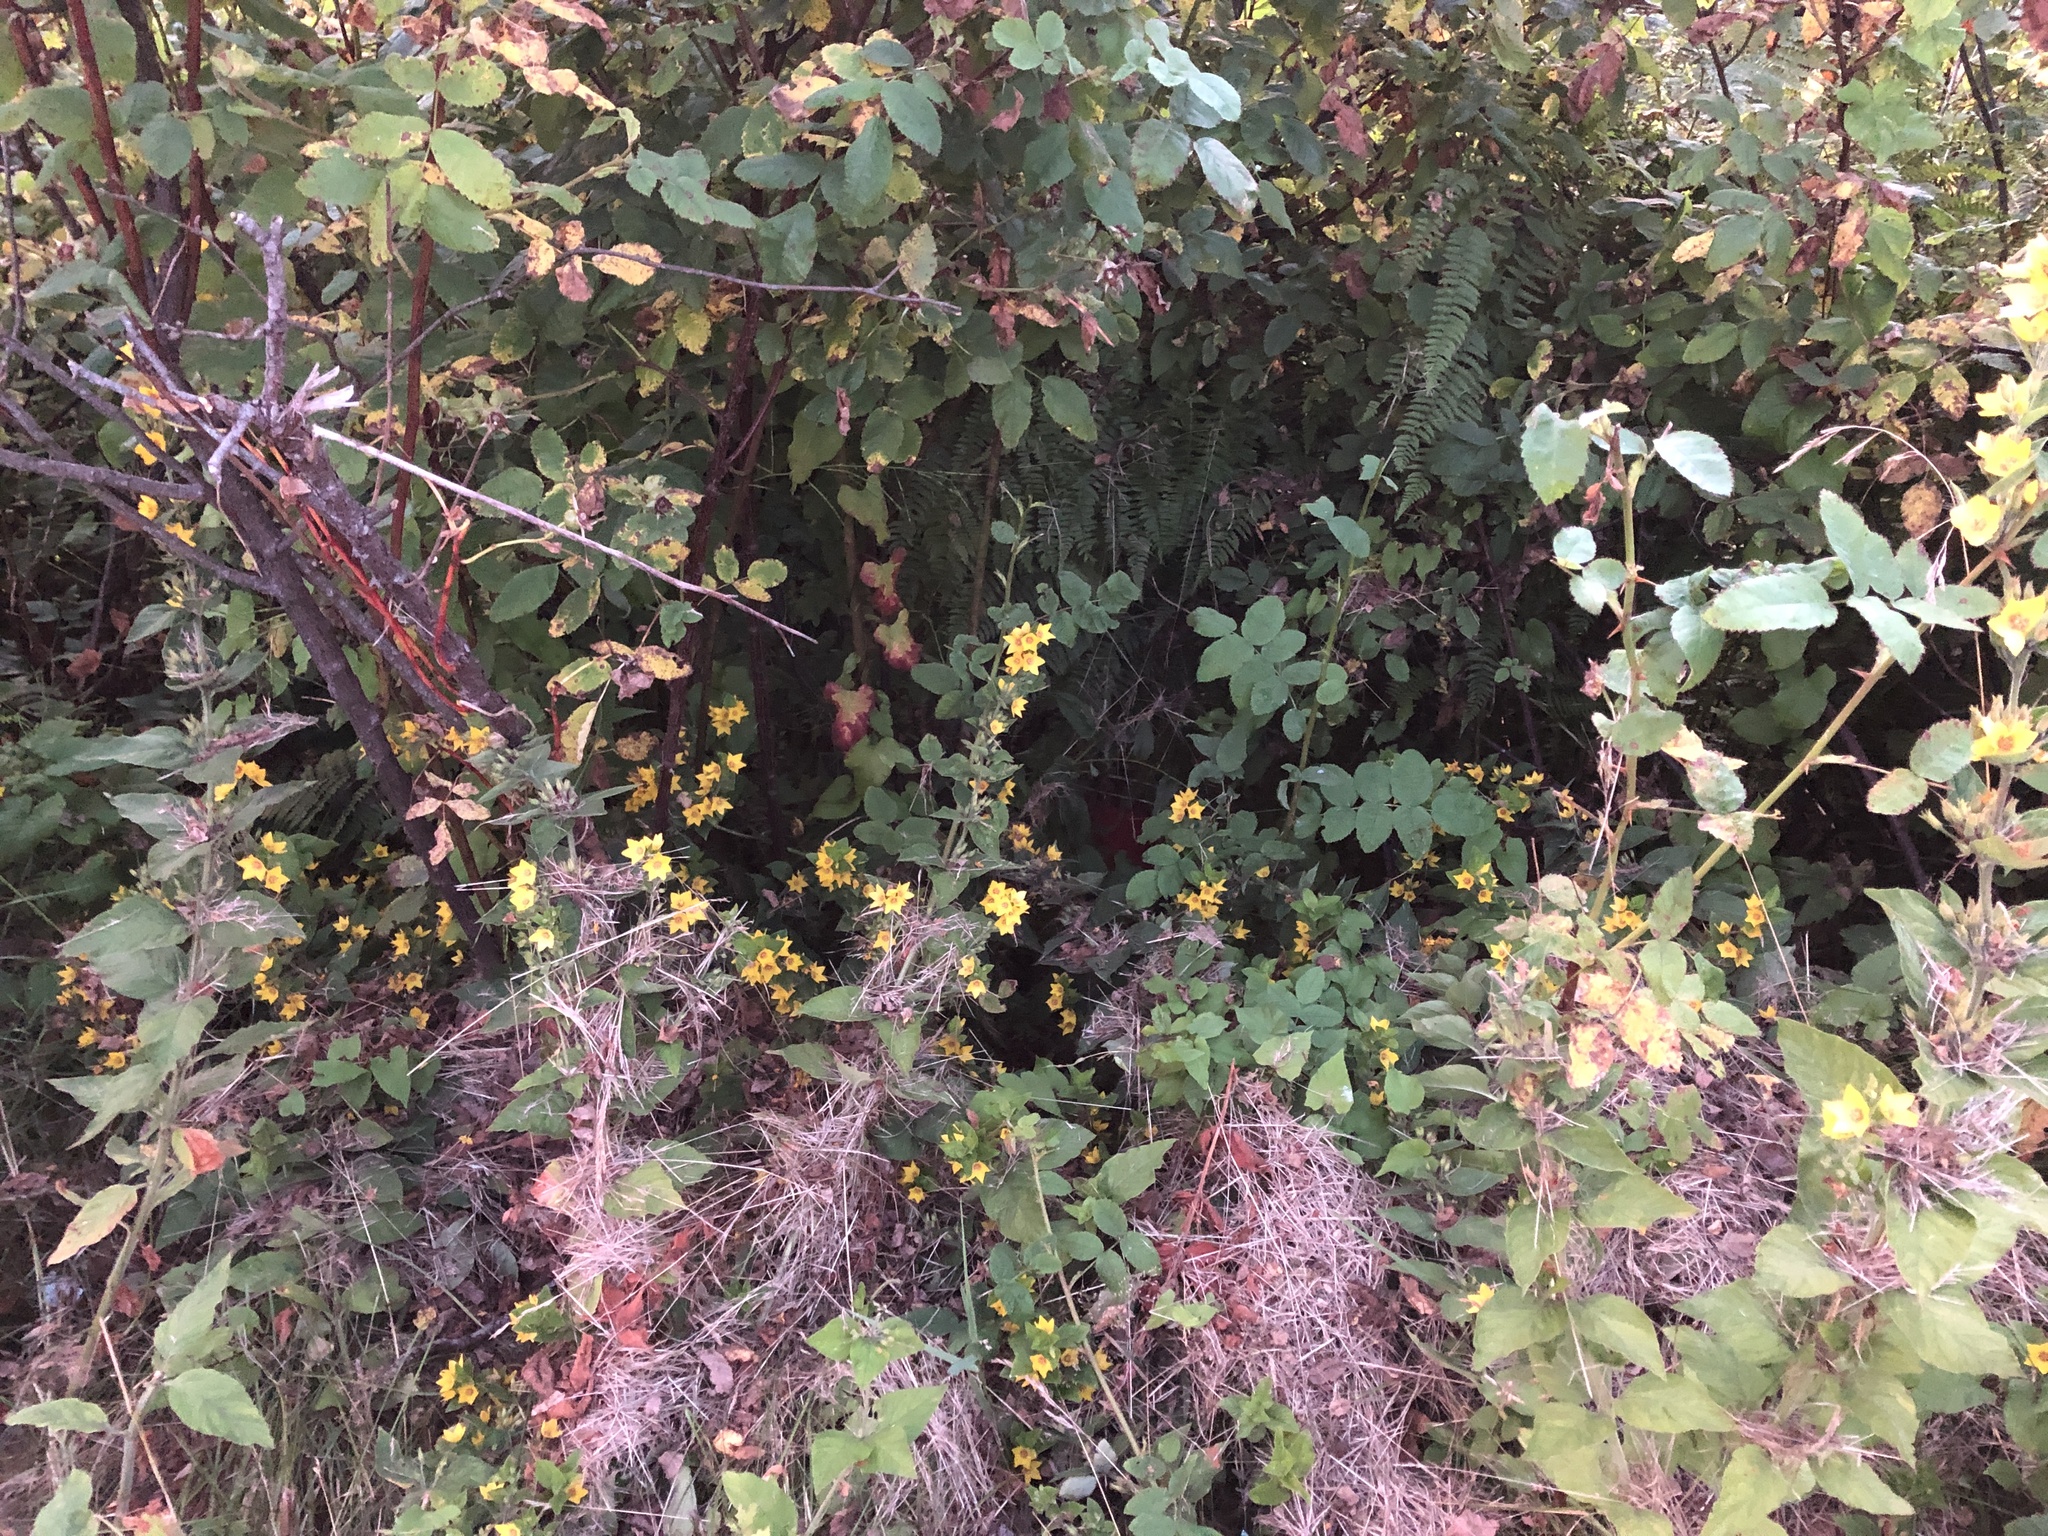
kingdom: Plantae
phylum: Tracheophyta
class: Magnoliopsida
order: Ericales
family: Primulaceae
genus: Lysimachia
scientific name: Lysimachia punctata
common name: Dotted loosestrife
